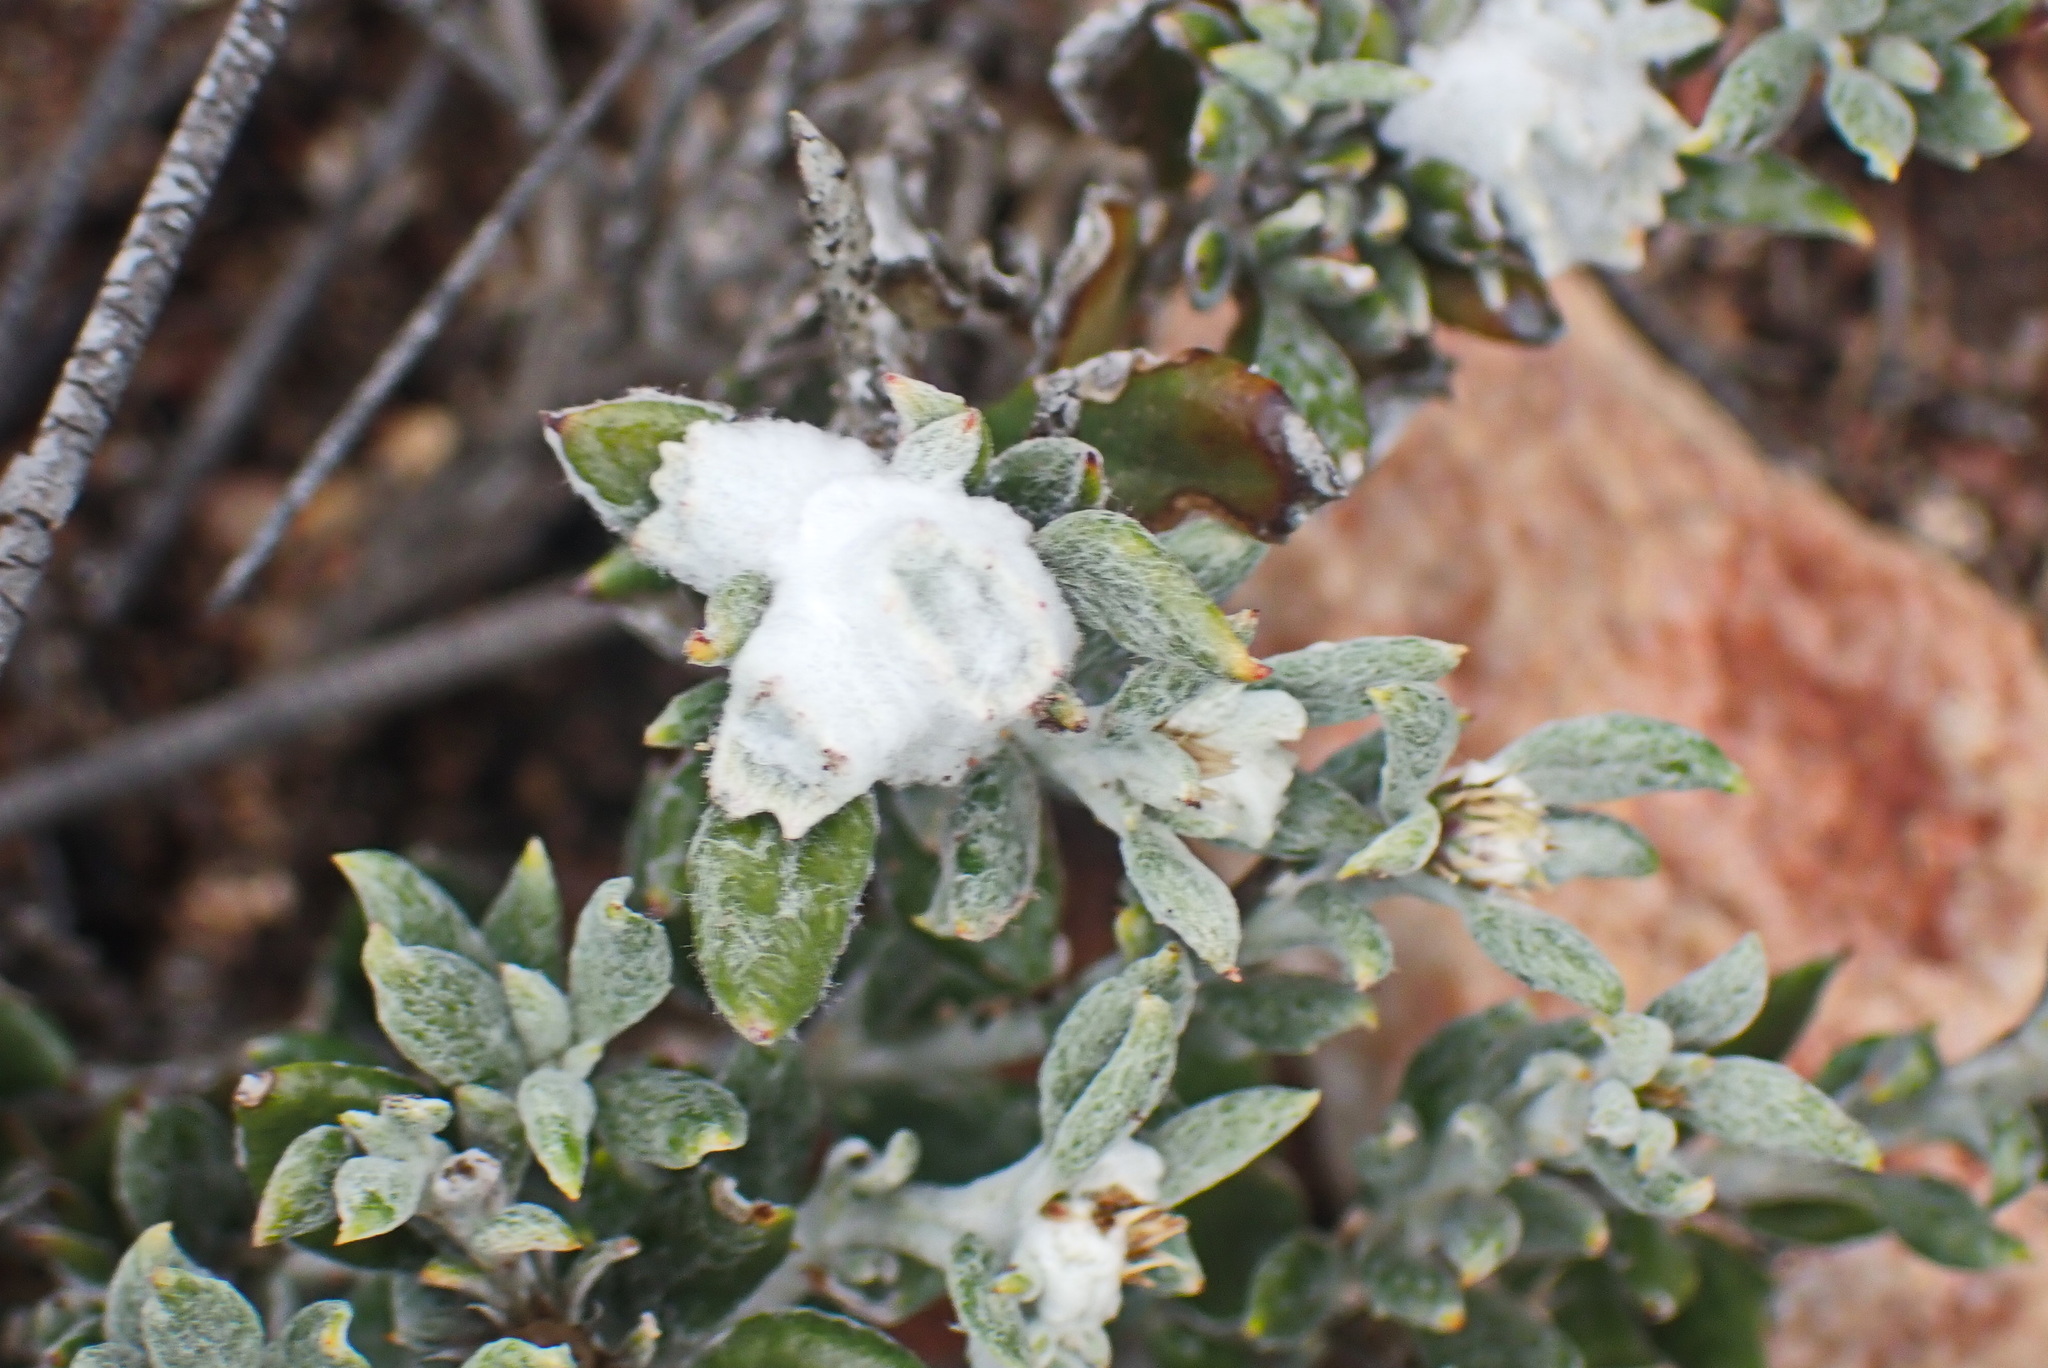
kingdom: Plantae
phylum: Tracheophyta
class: Magnoliopsida
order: Asterales
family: Asteraceae
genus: Macledium
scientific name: Macledium spinosum
